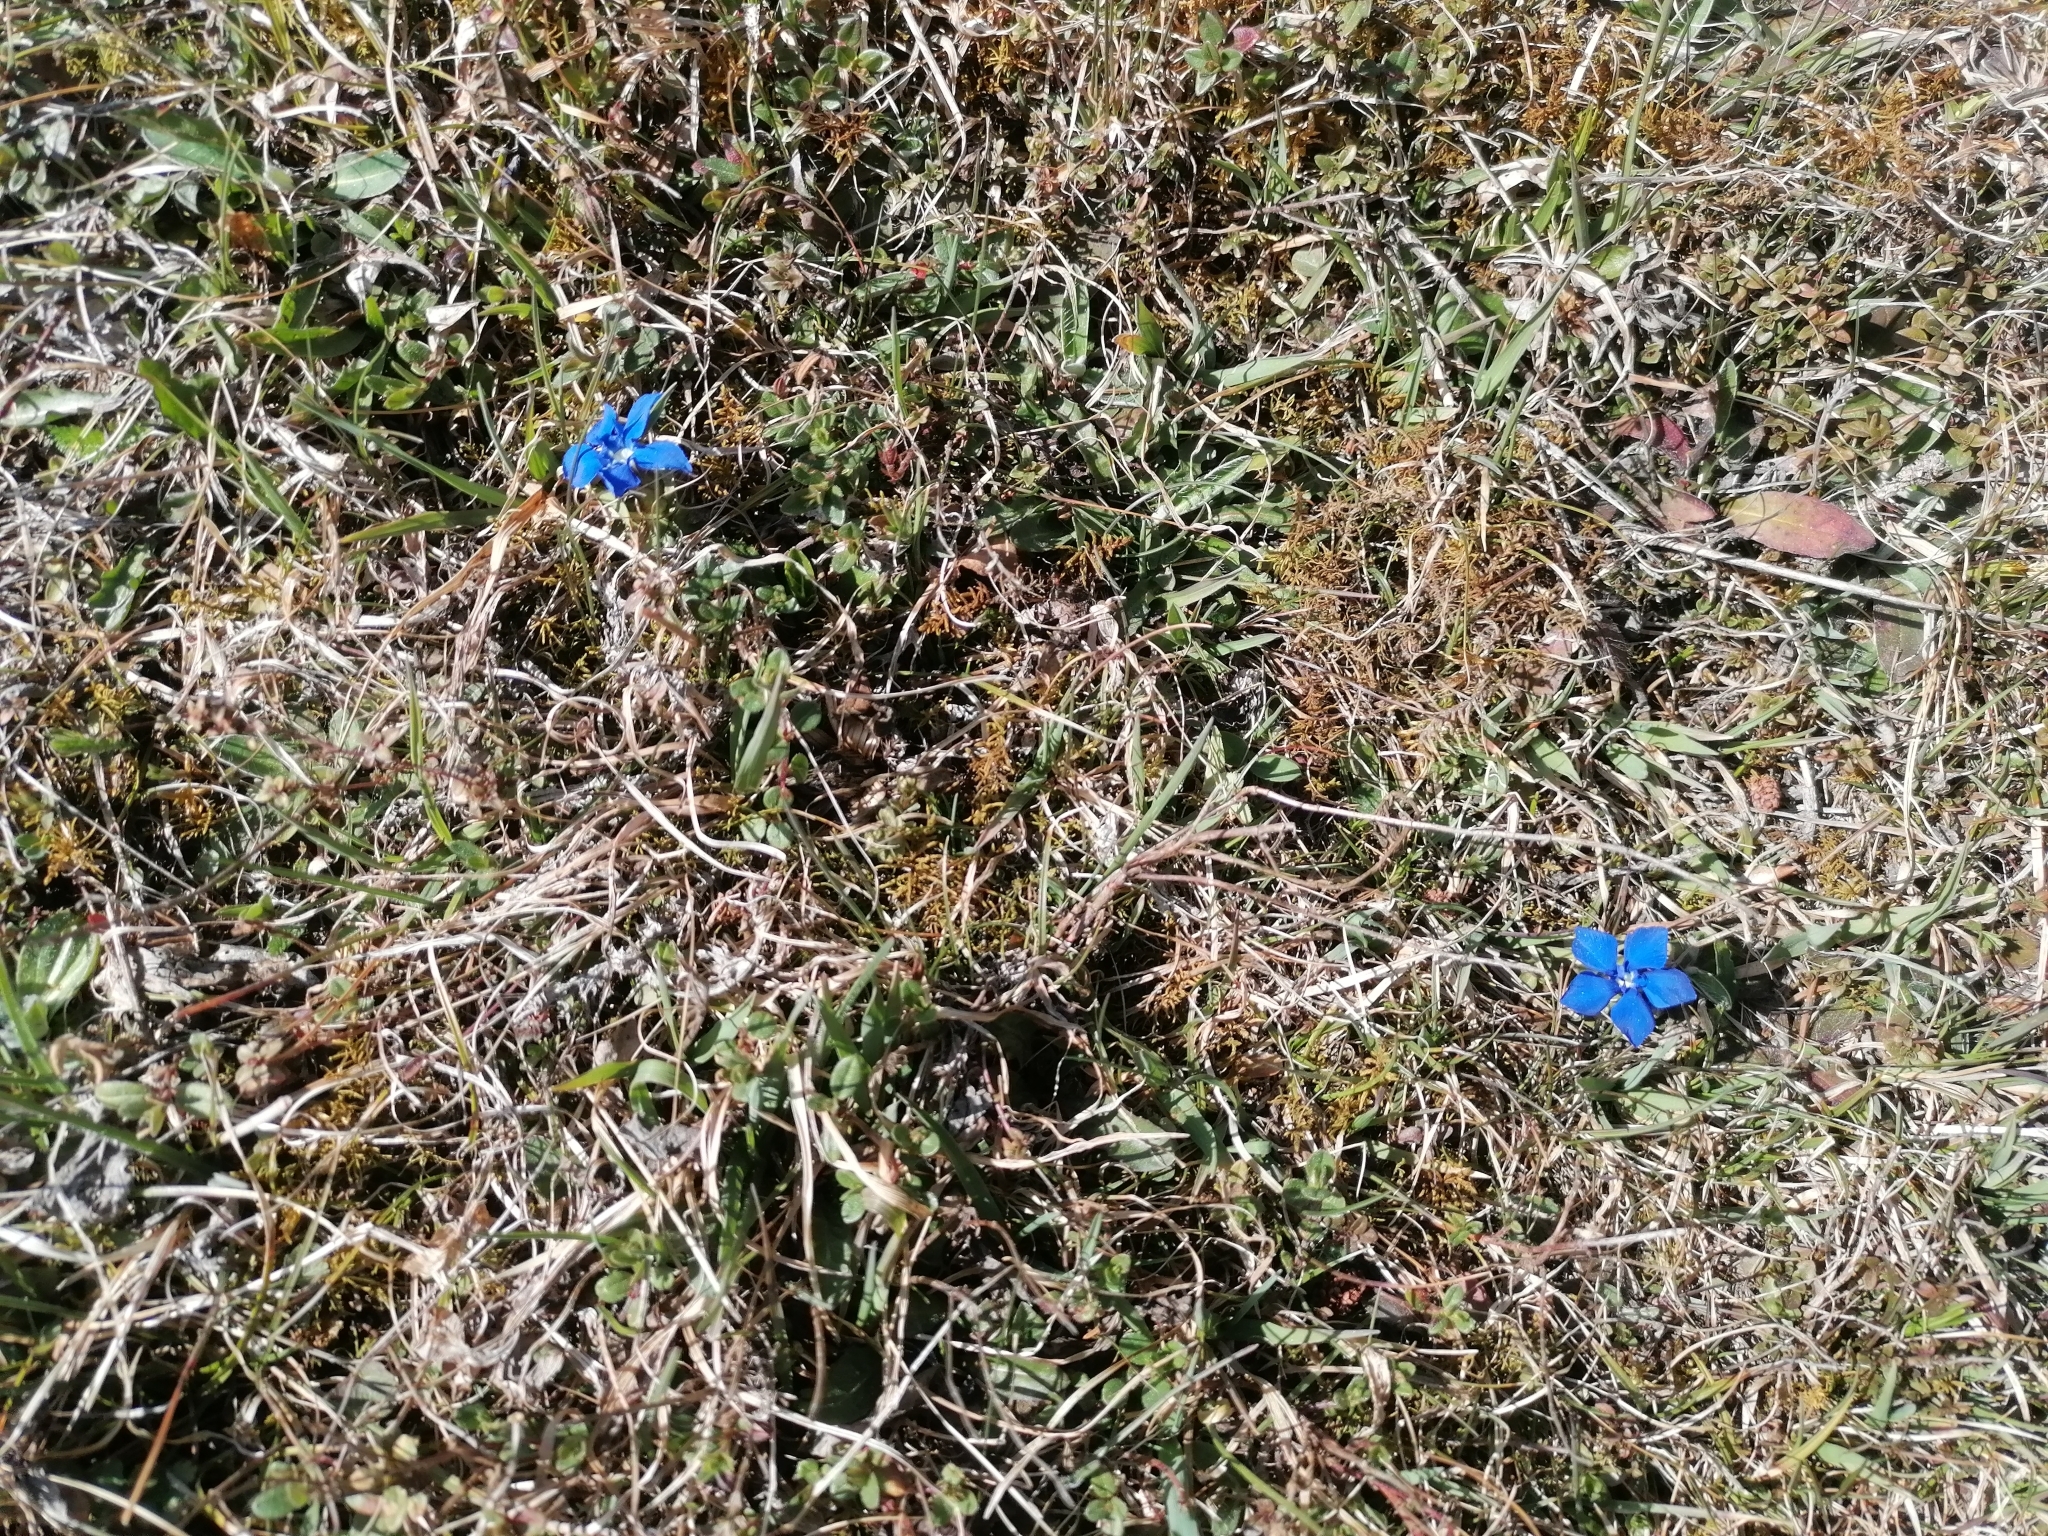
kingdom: Plantae
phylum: Tracheophyta
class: Magnoliopsida
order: Gentianales
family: Gentianaceae
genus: Gentiana
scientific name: Gentiana verna
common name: Spring gentian
